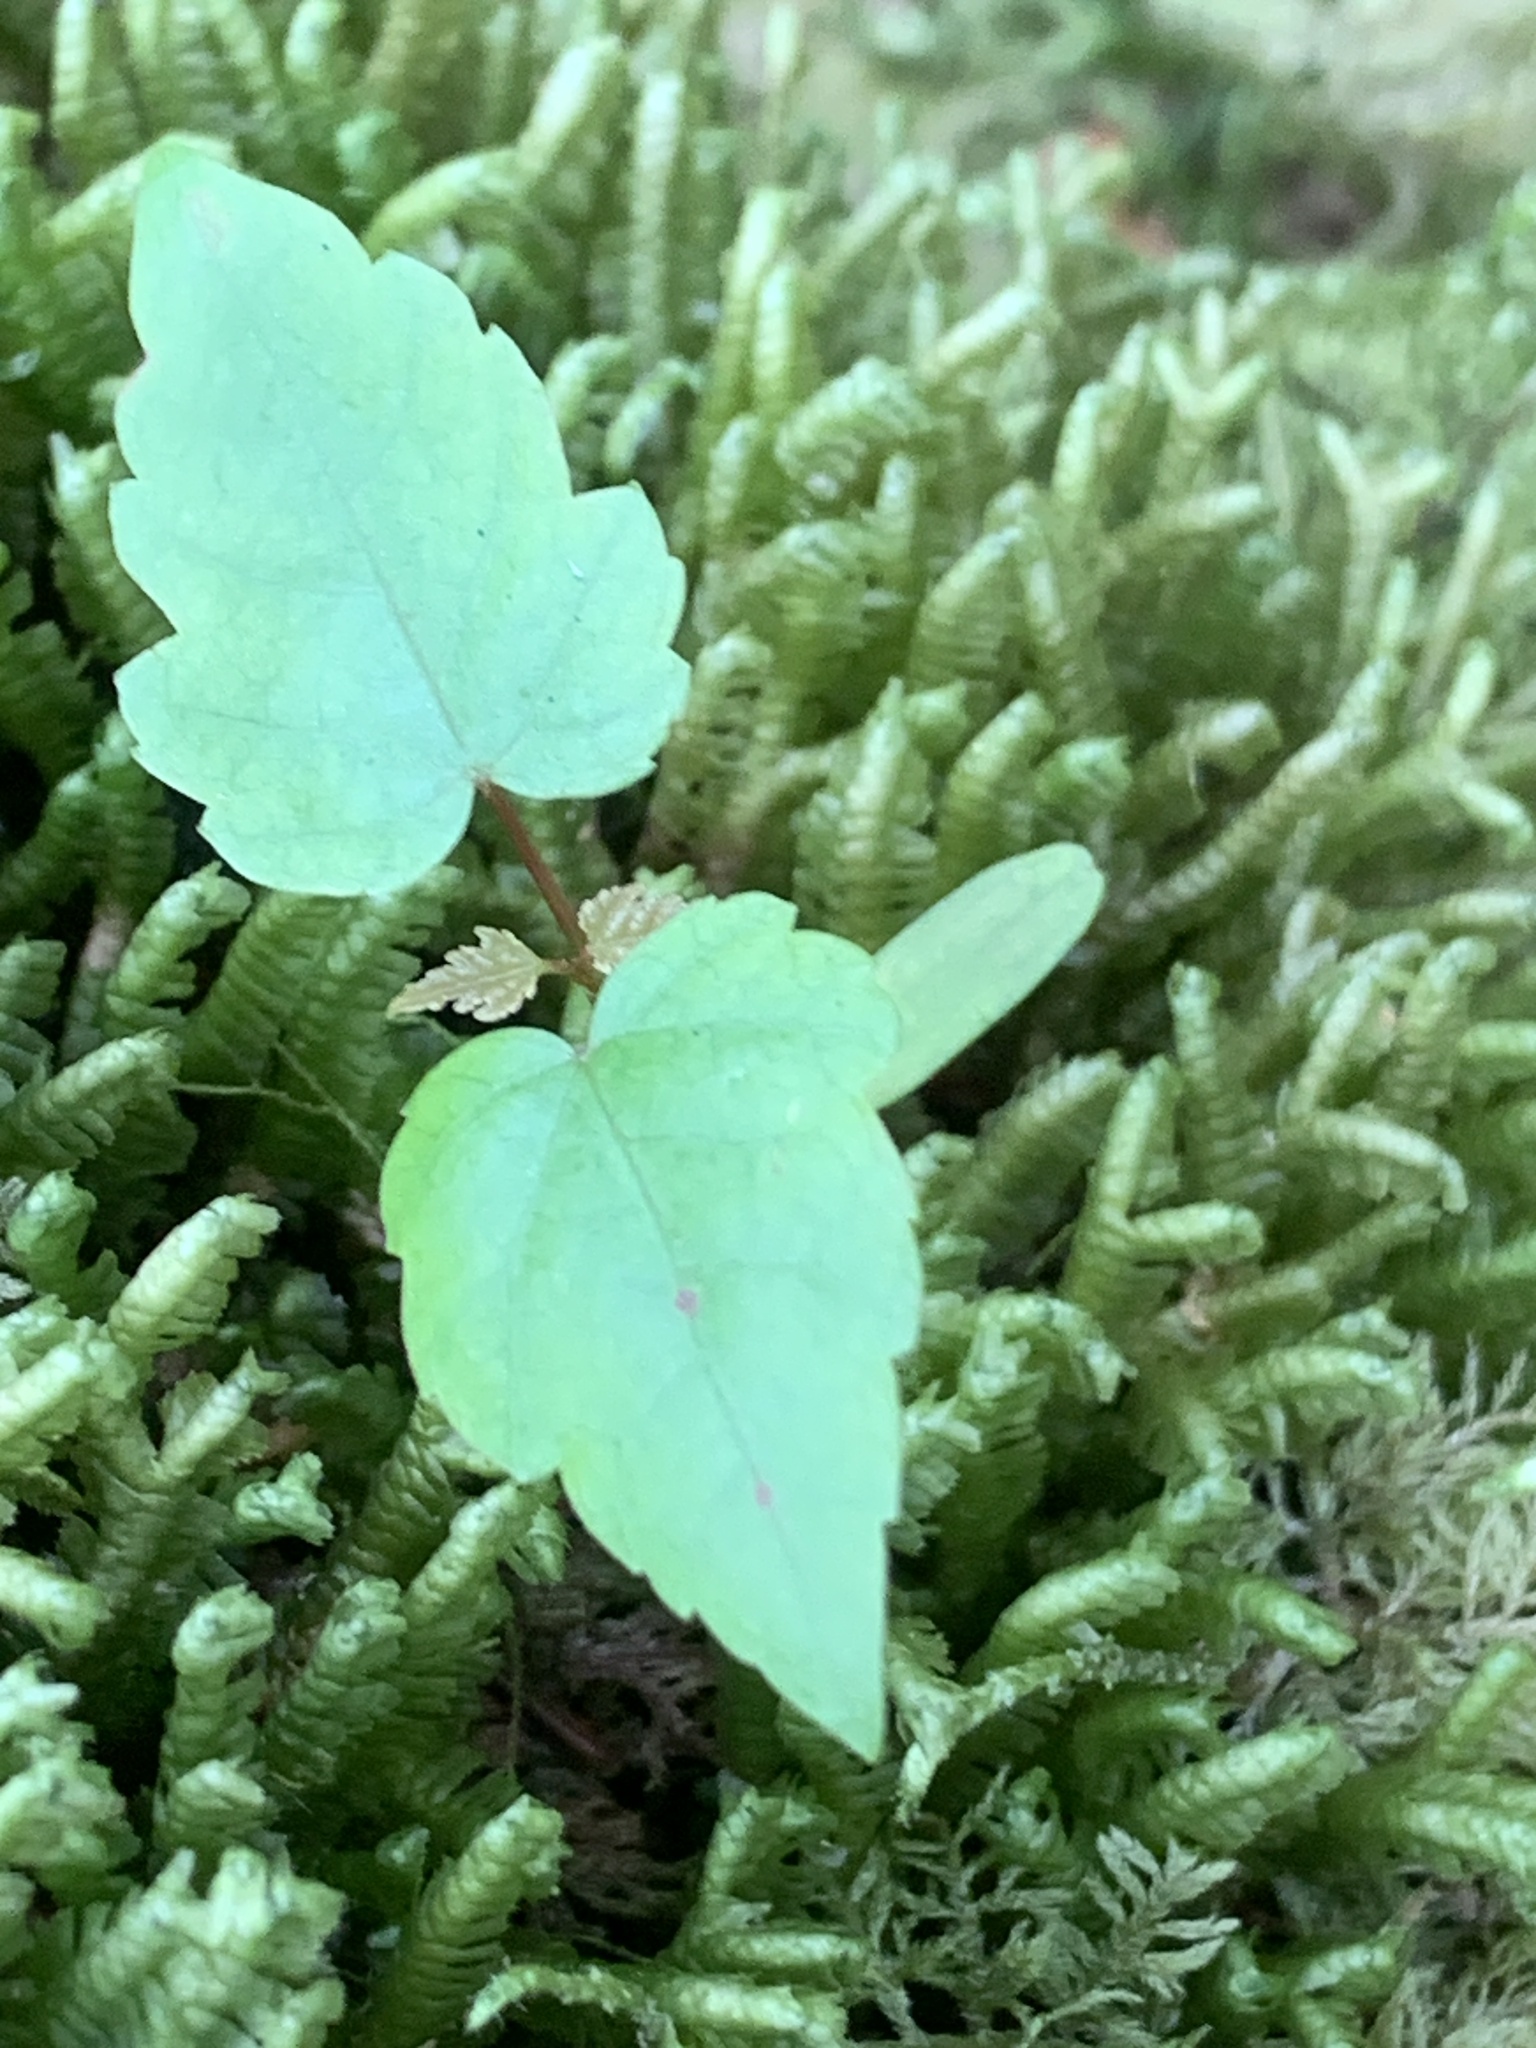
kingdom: Plantae
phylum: Tracheophyta
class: Magnoliopsida
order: Sapindales
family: Sapindaceae
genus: Acer
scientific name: Acer rubrum
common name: Red maple
